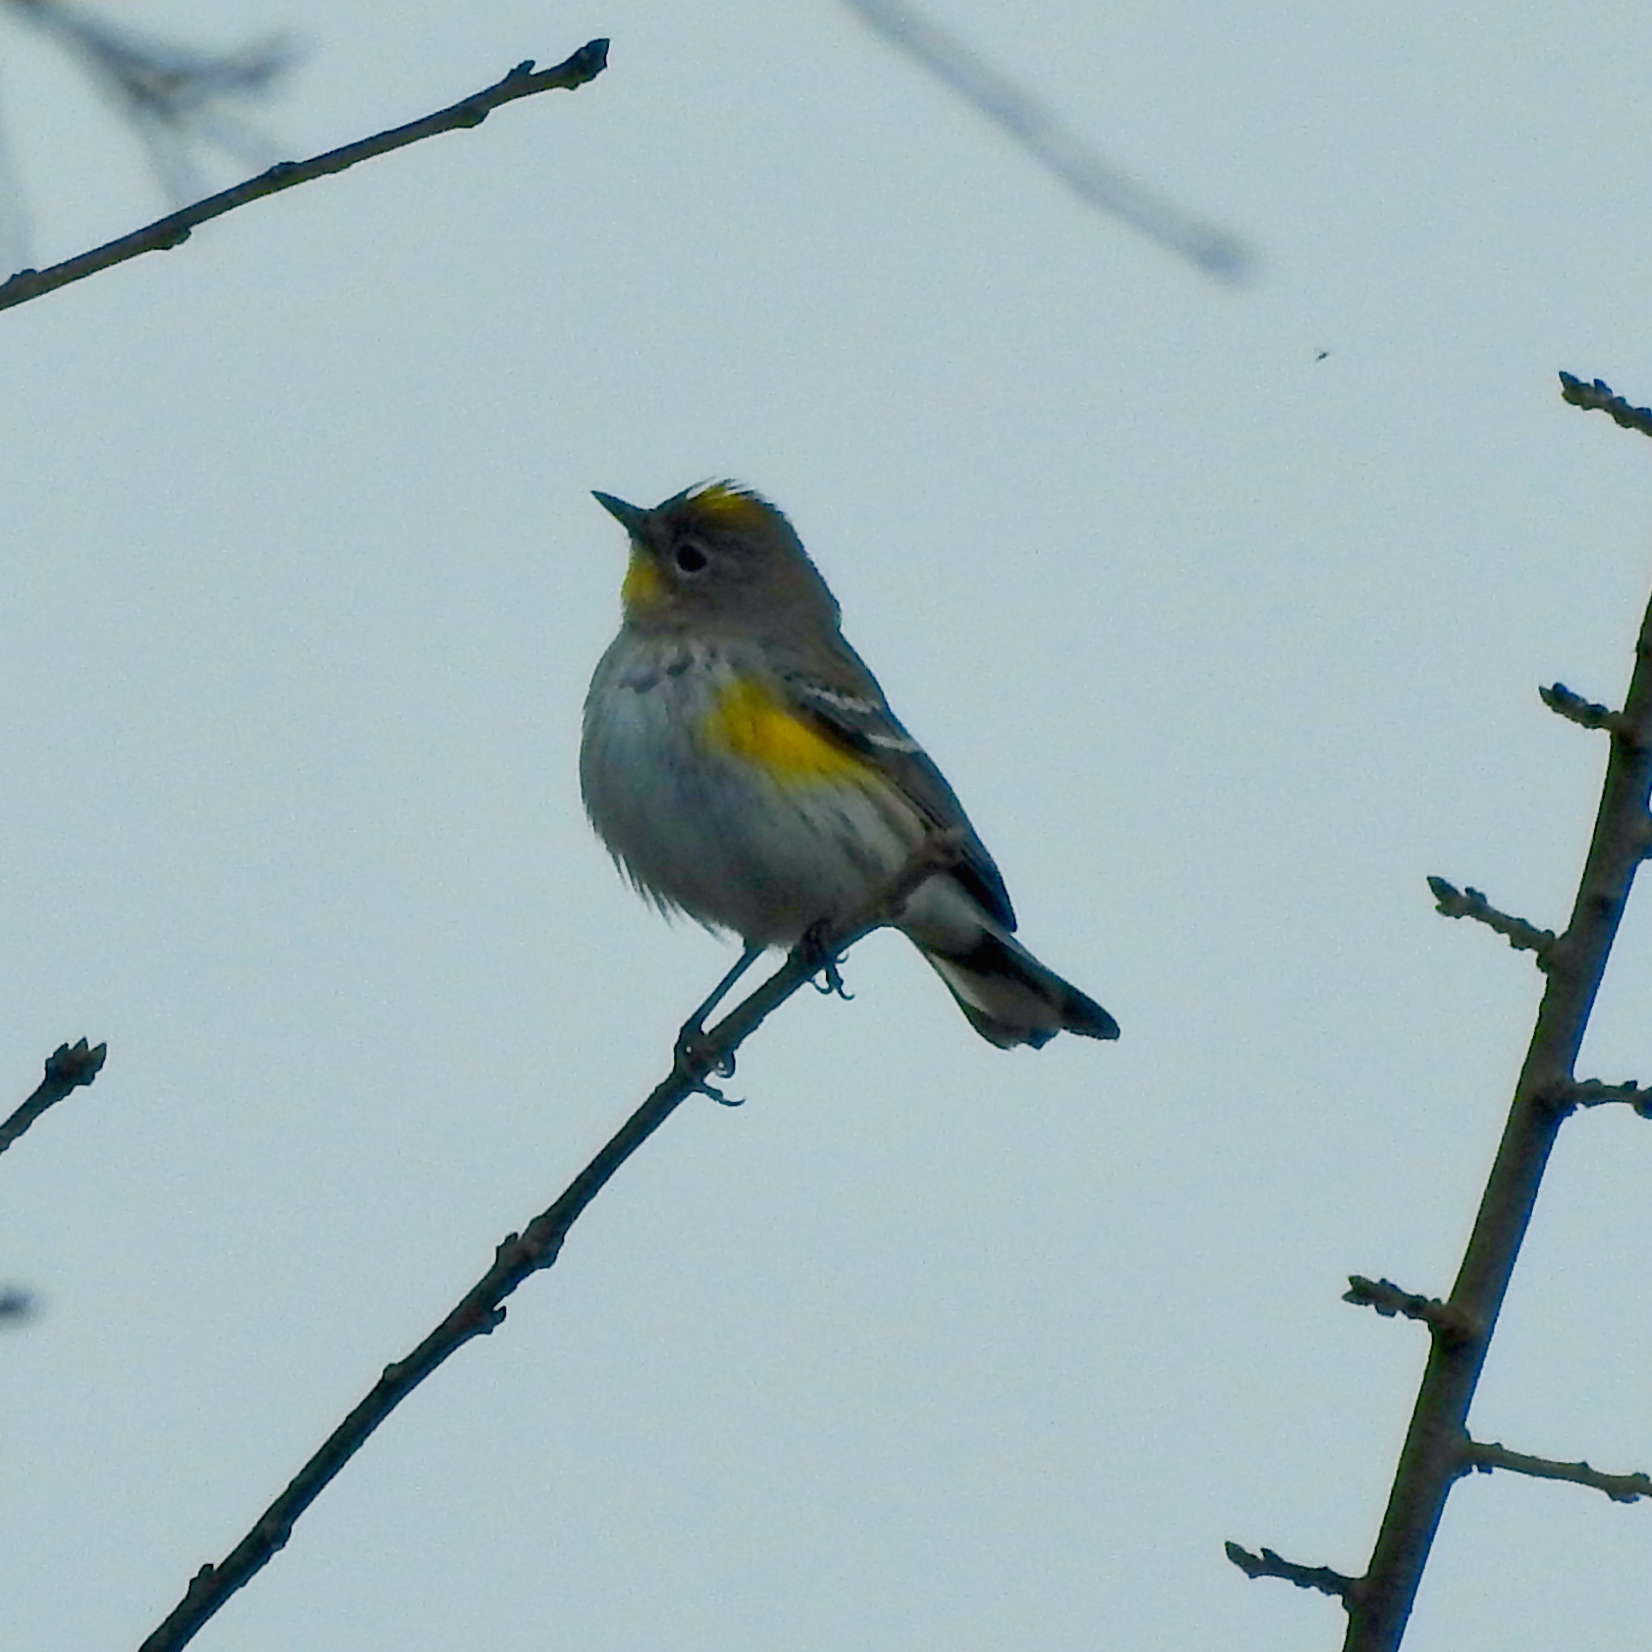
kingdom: Animalia
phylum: Chordata
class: Aves
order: Passeriformes
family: Parulidae
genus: Setophaga
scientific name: Setophaga coronata
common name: Myrtle warbler
